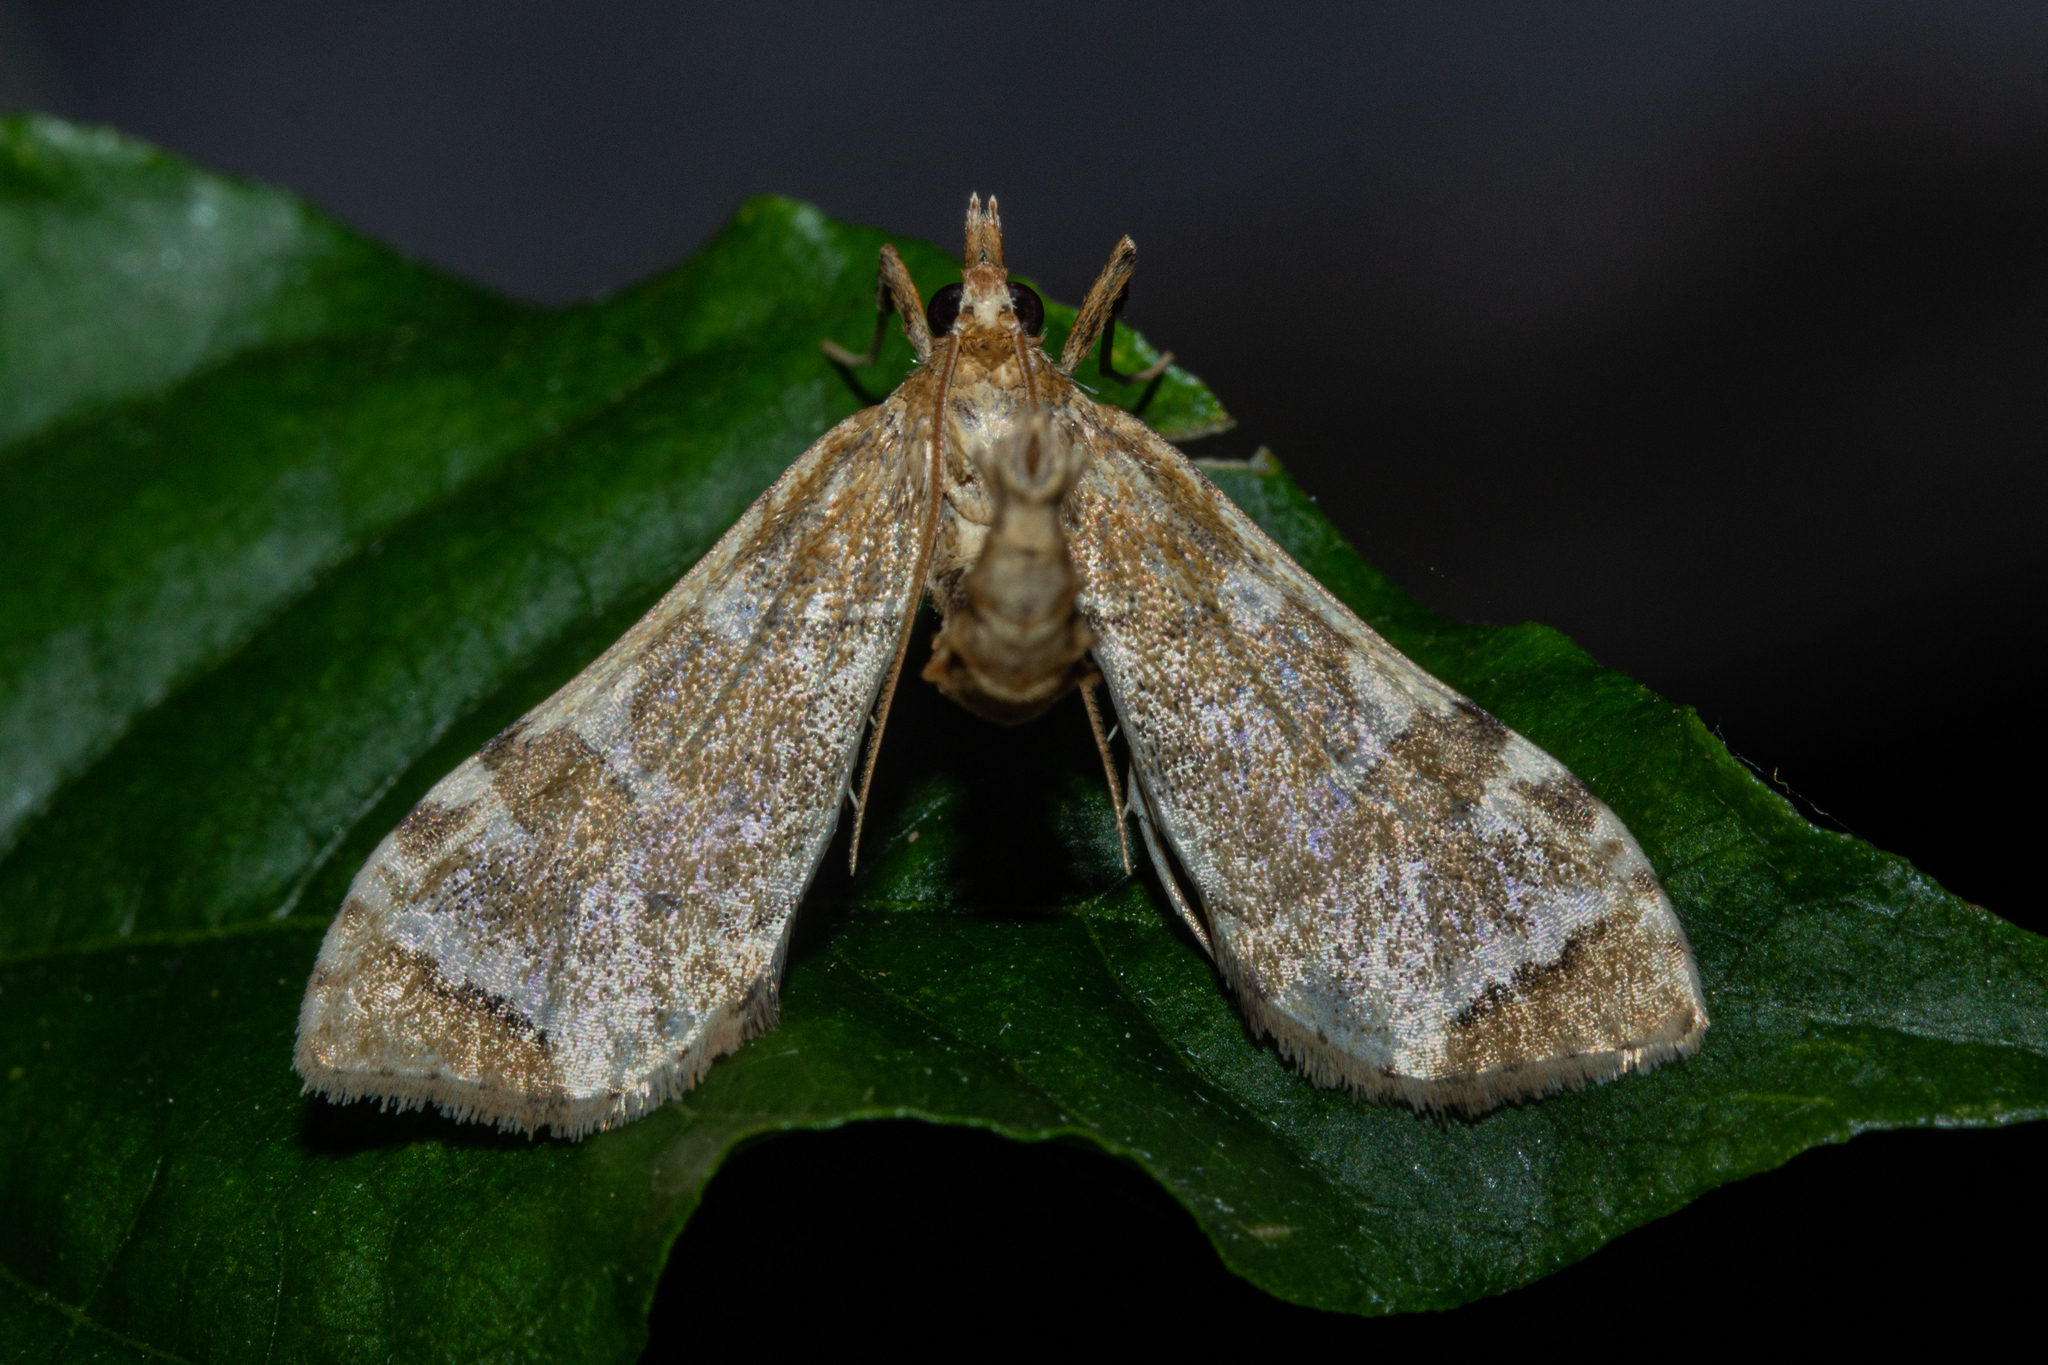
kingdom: Animalia
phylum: Arthropoda
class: Insecta
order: Lepidoptera
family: Crambidae
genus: Sceliodes
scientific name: Sceliodes cordalis
